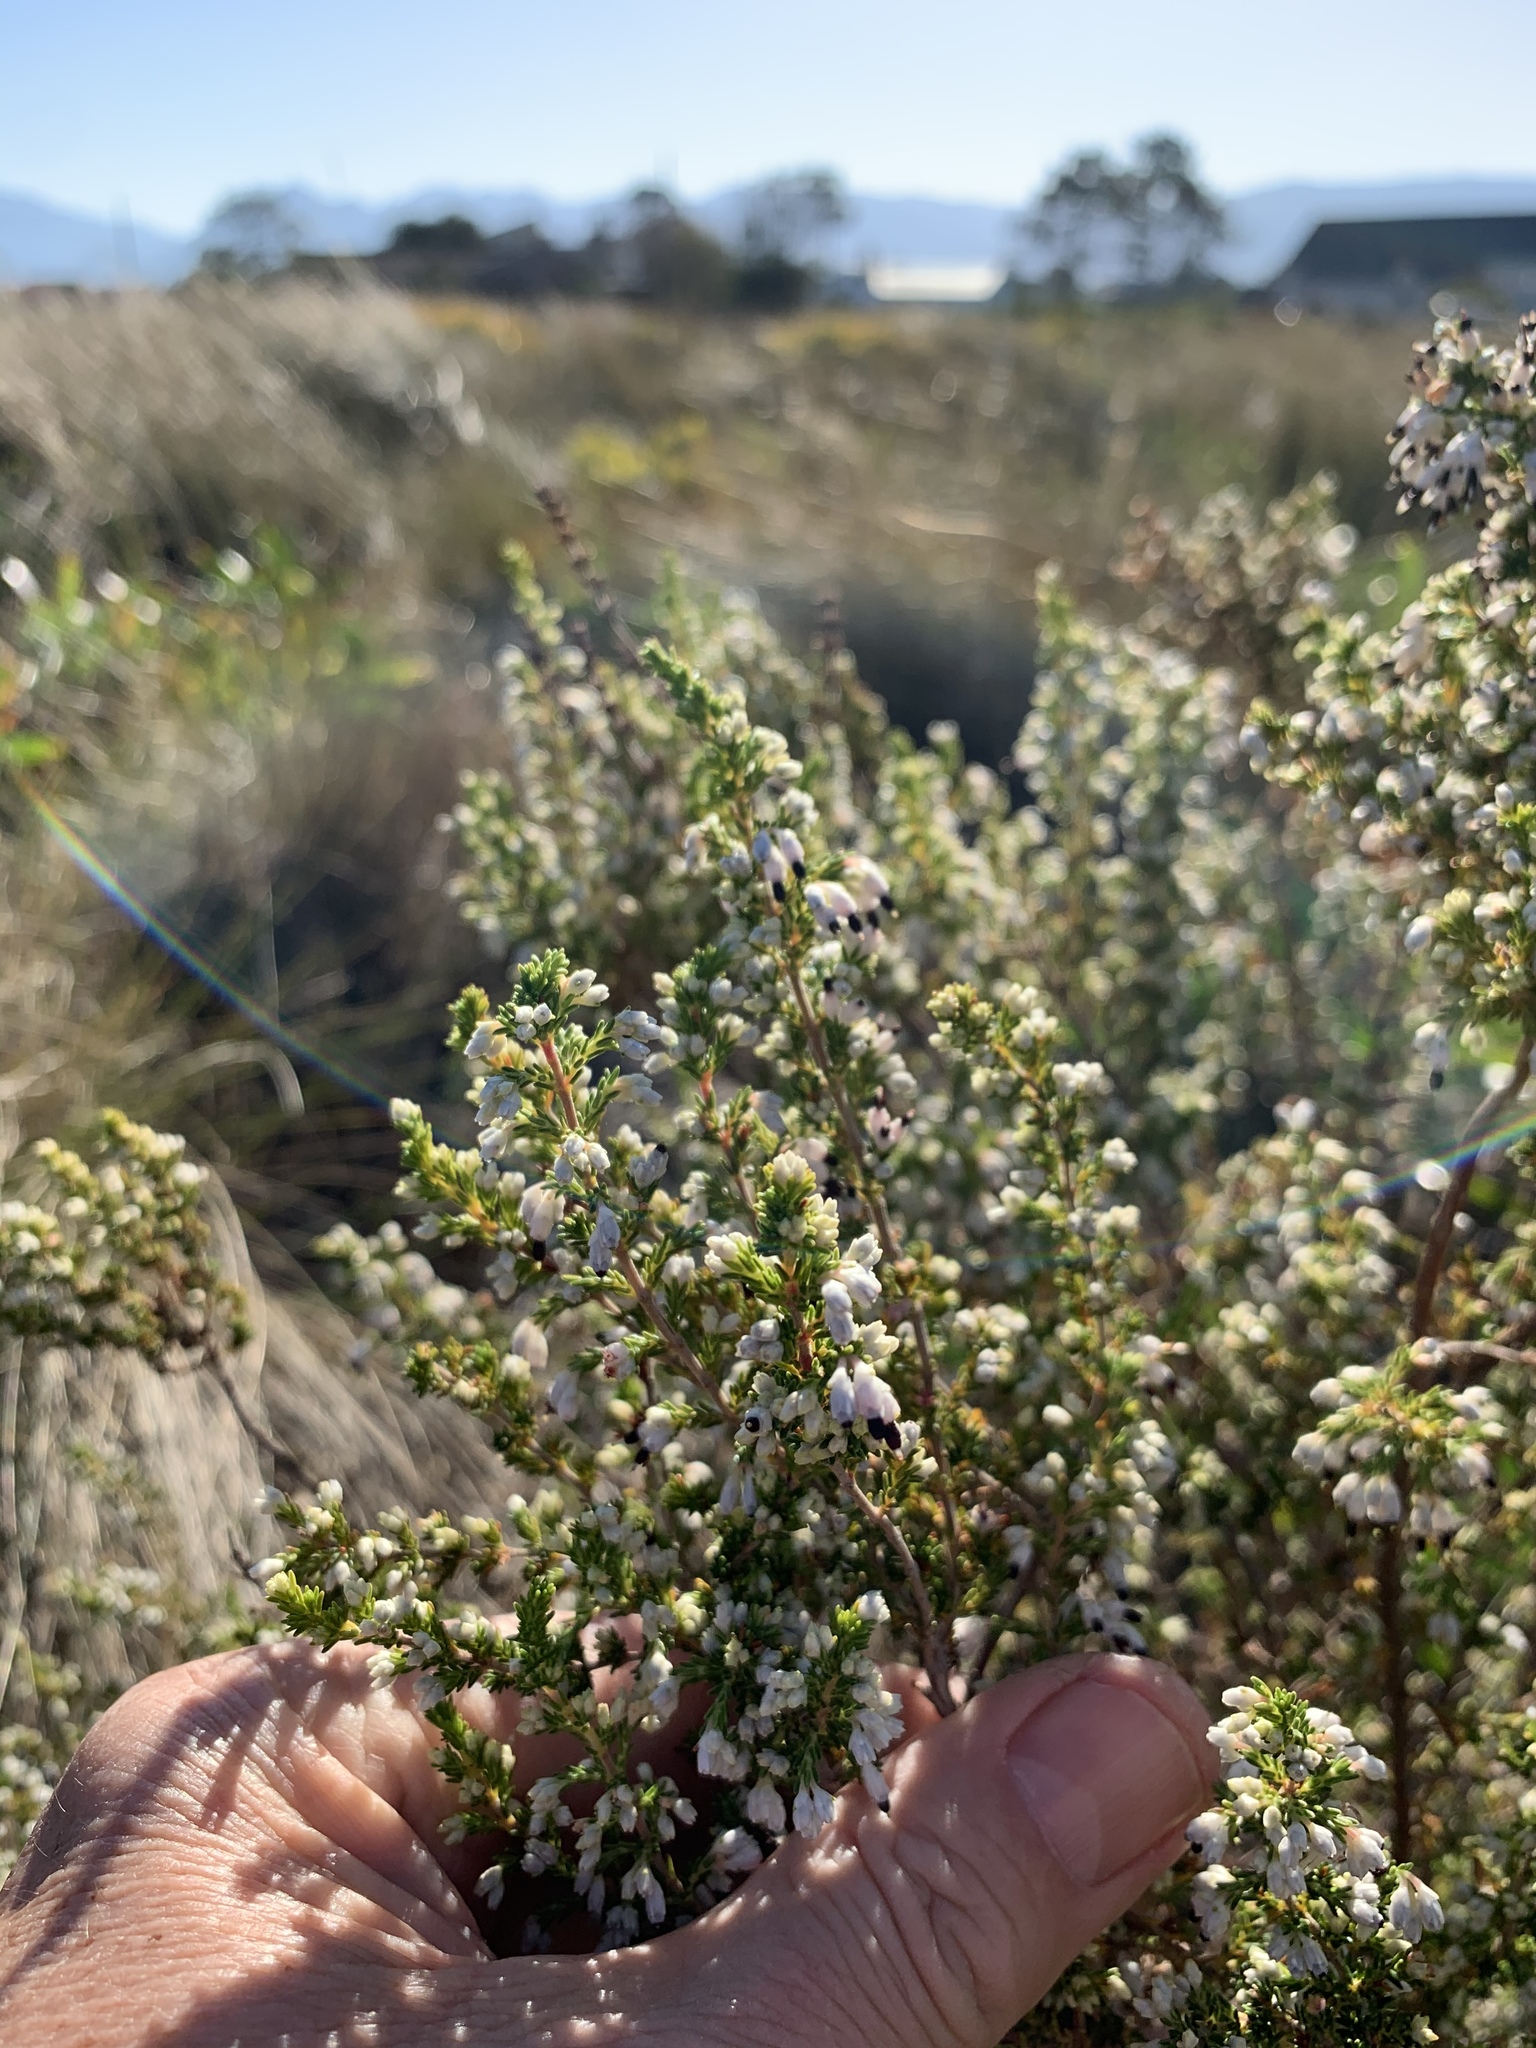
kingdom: Plantae
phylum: Tracheophyta
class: Magnoliopsida
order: Ericales
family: Ericaceae
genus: Erica
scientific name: Erica imbricata
